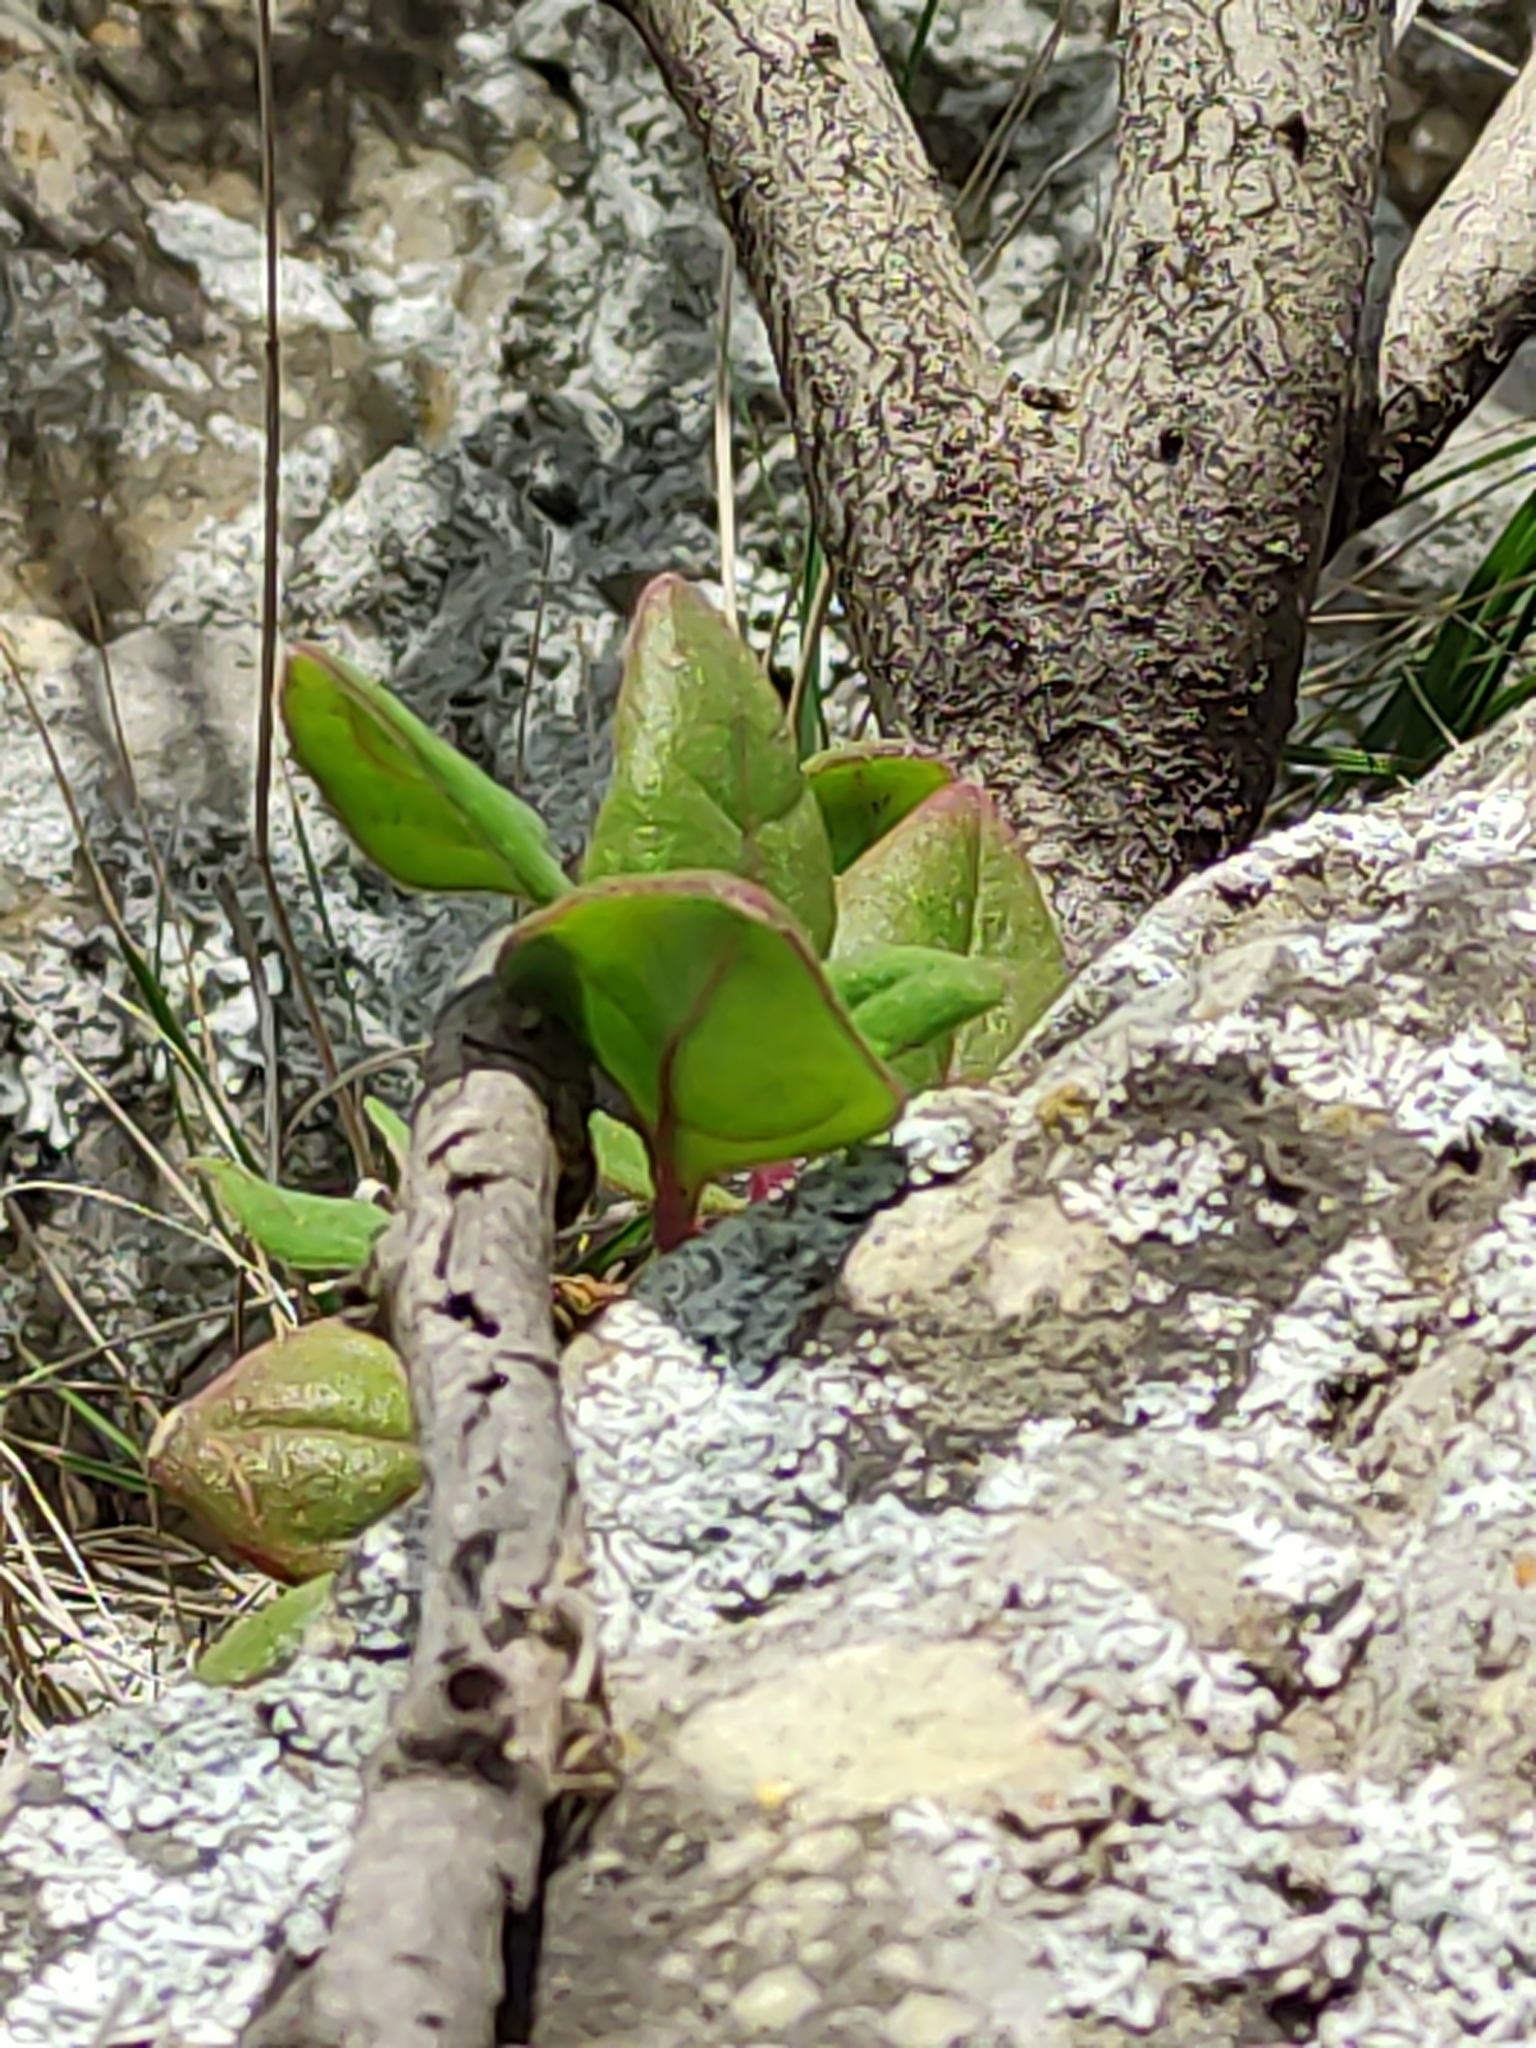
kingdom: Plantae
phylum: Tracheophyta
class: Magnoliopsida
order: Caryophyllales
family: Aizoaceae
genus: Tetragonia
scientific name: Tetragonia implexicoma
